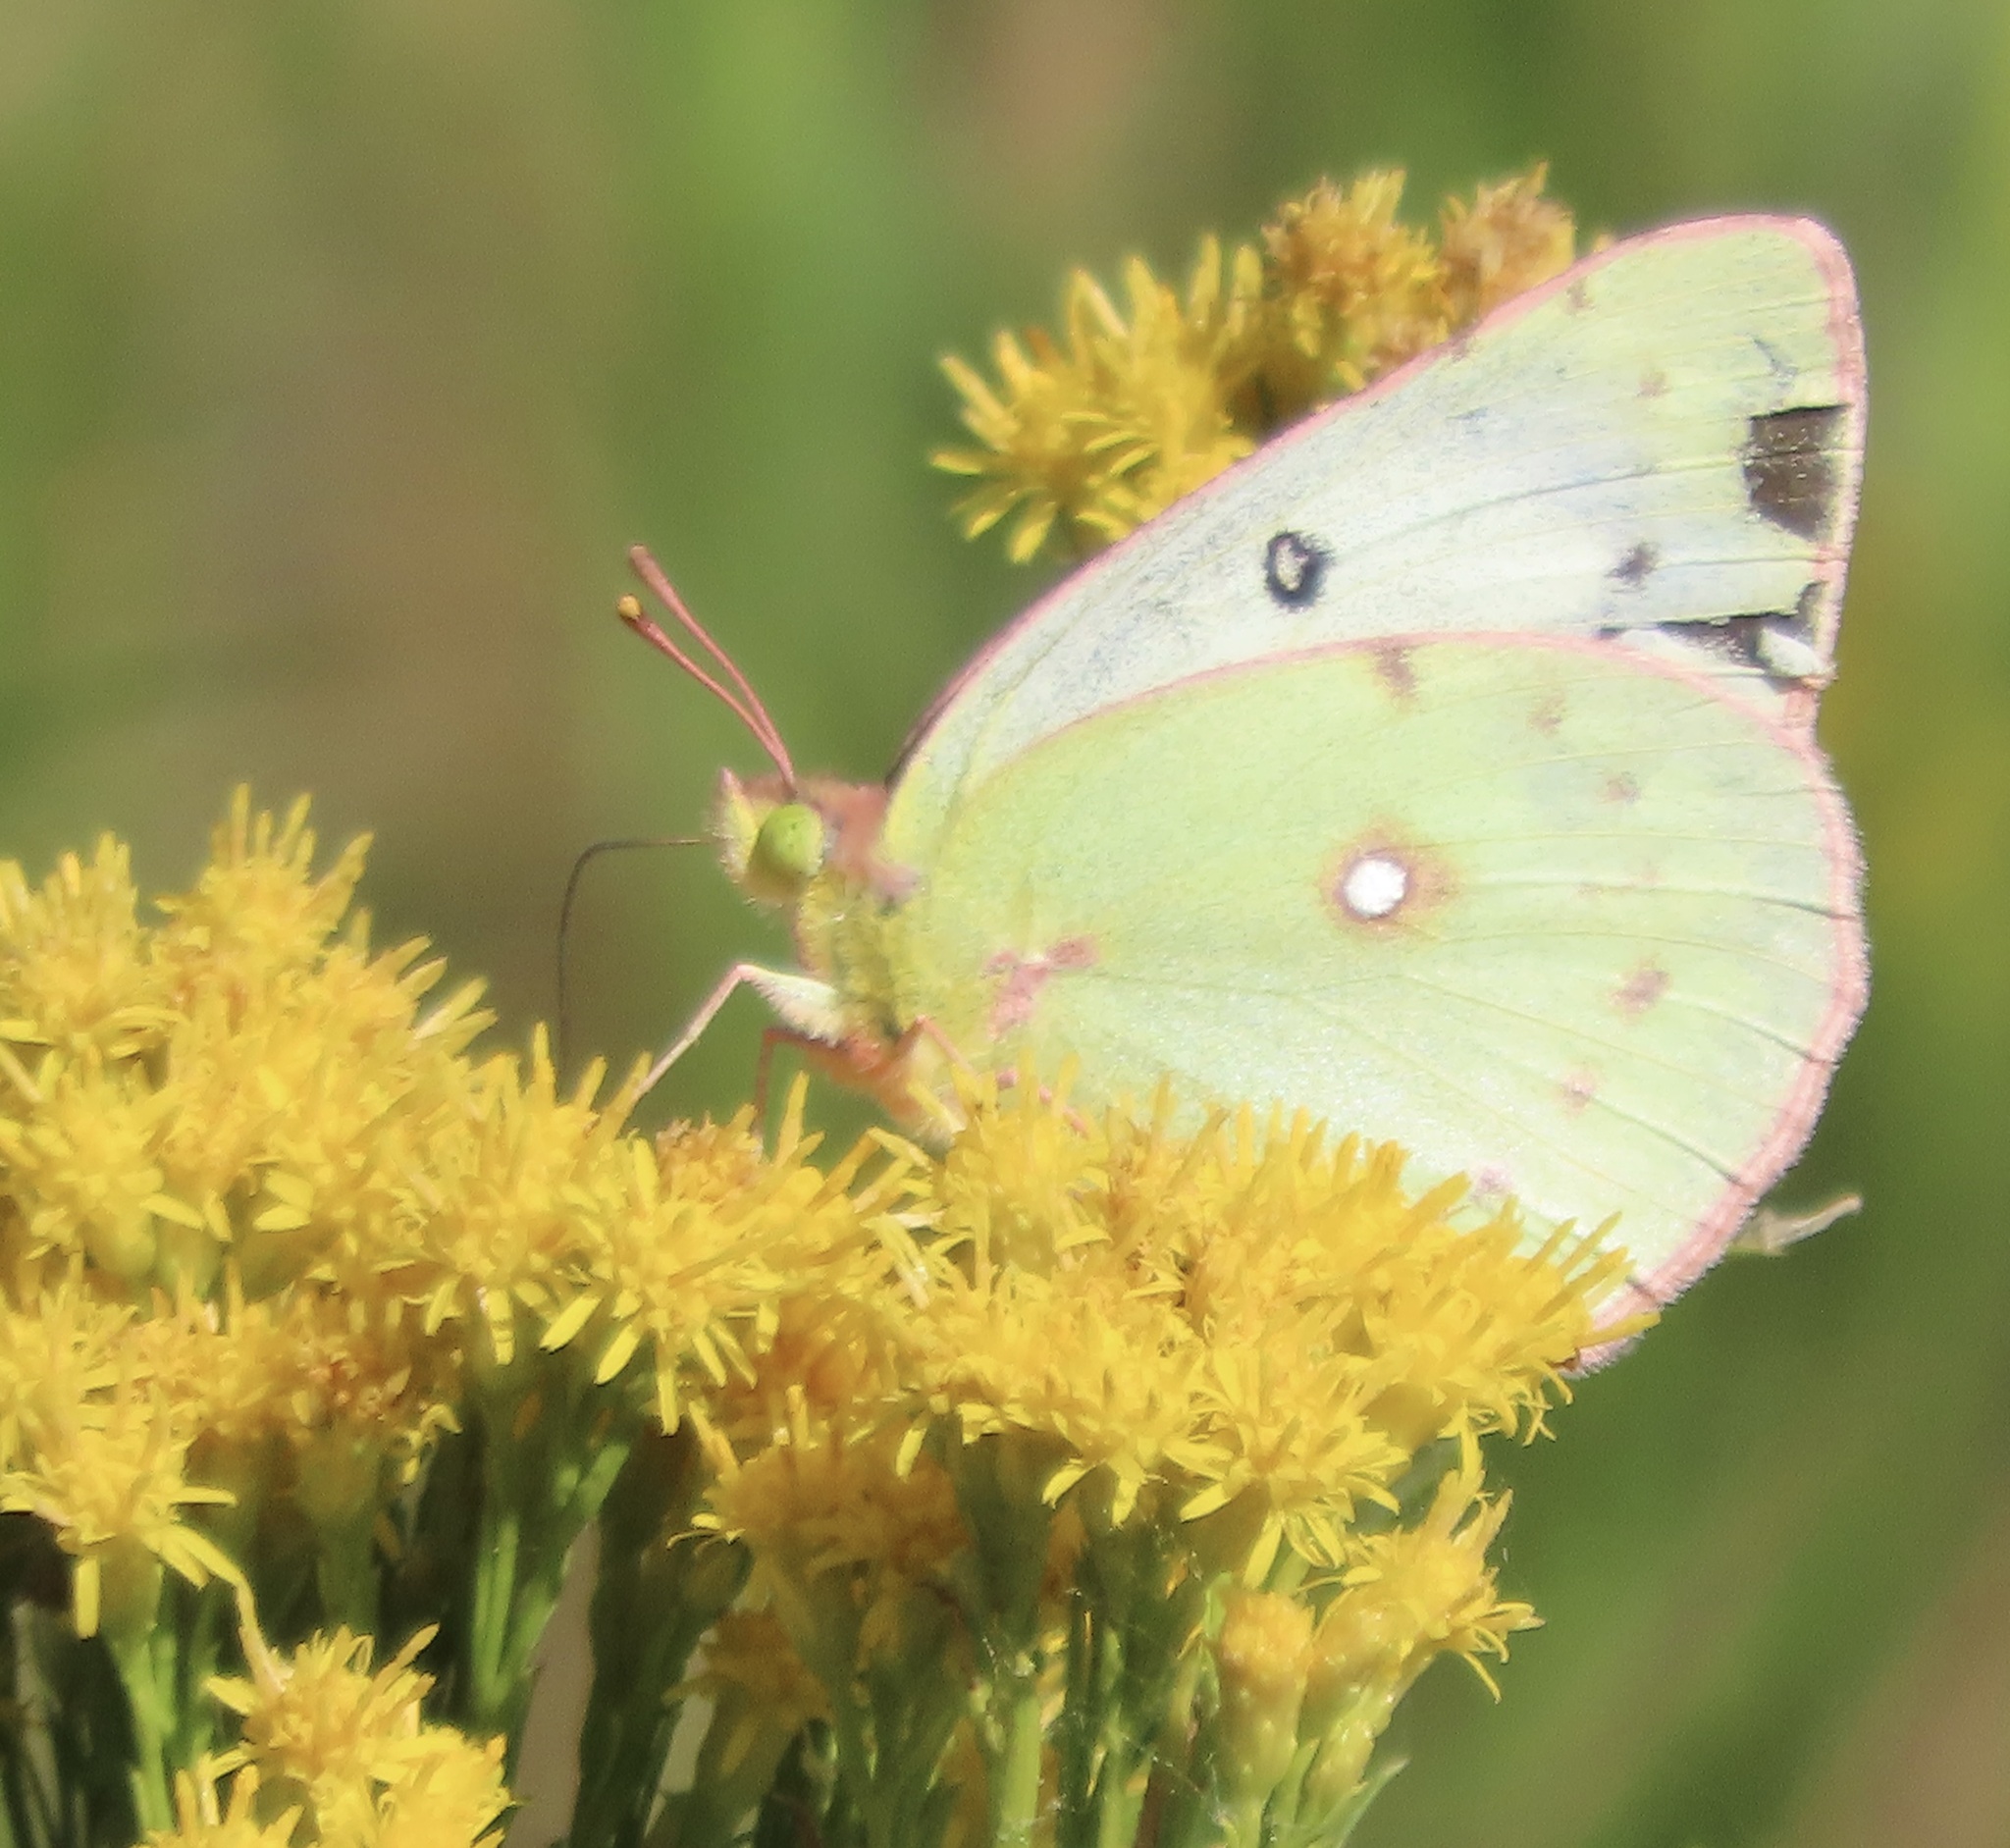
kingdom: Animalia
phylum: Arthropoda
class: Insecta
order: Lepidoptera
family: Pieridae
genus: Colias
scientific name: Colias eurytheme
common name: Alfalfa butterfly
